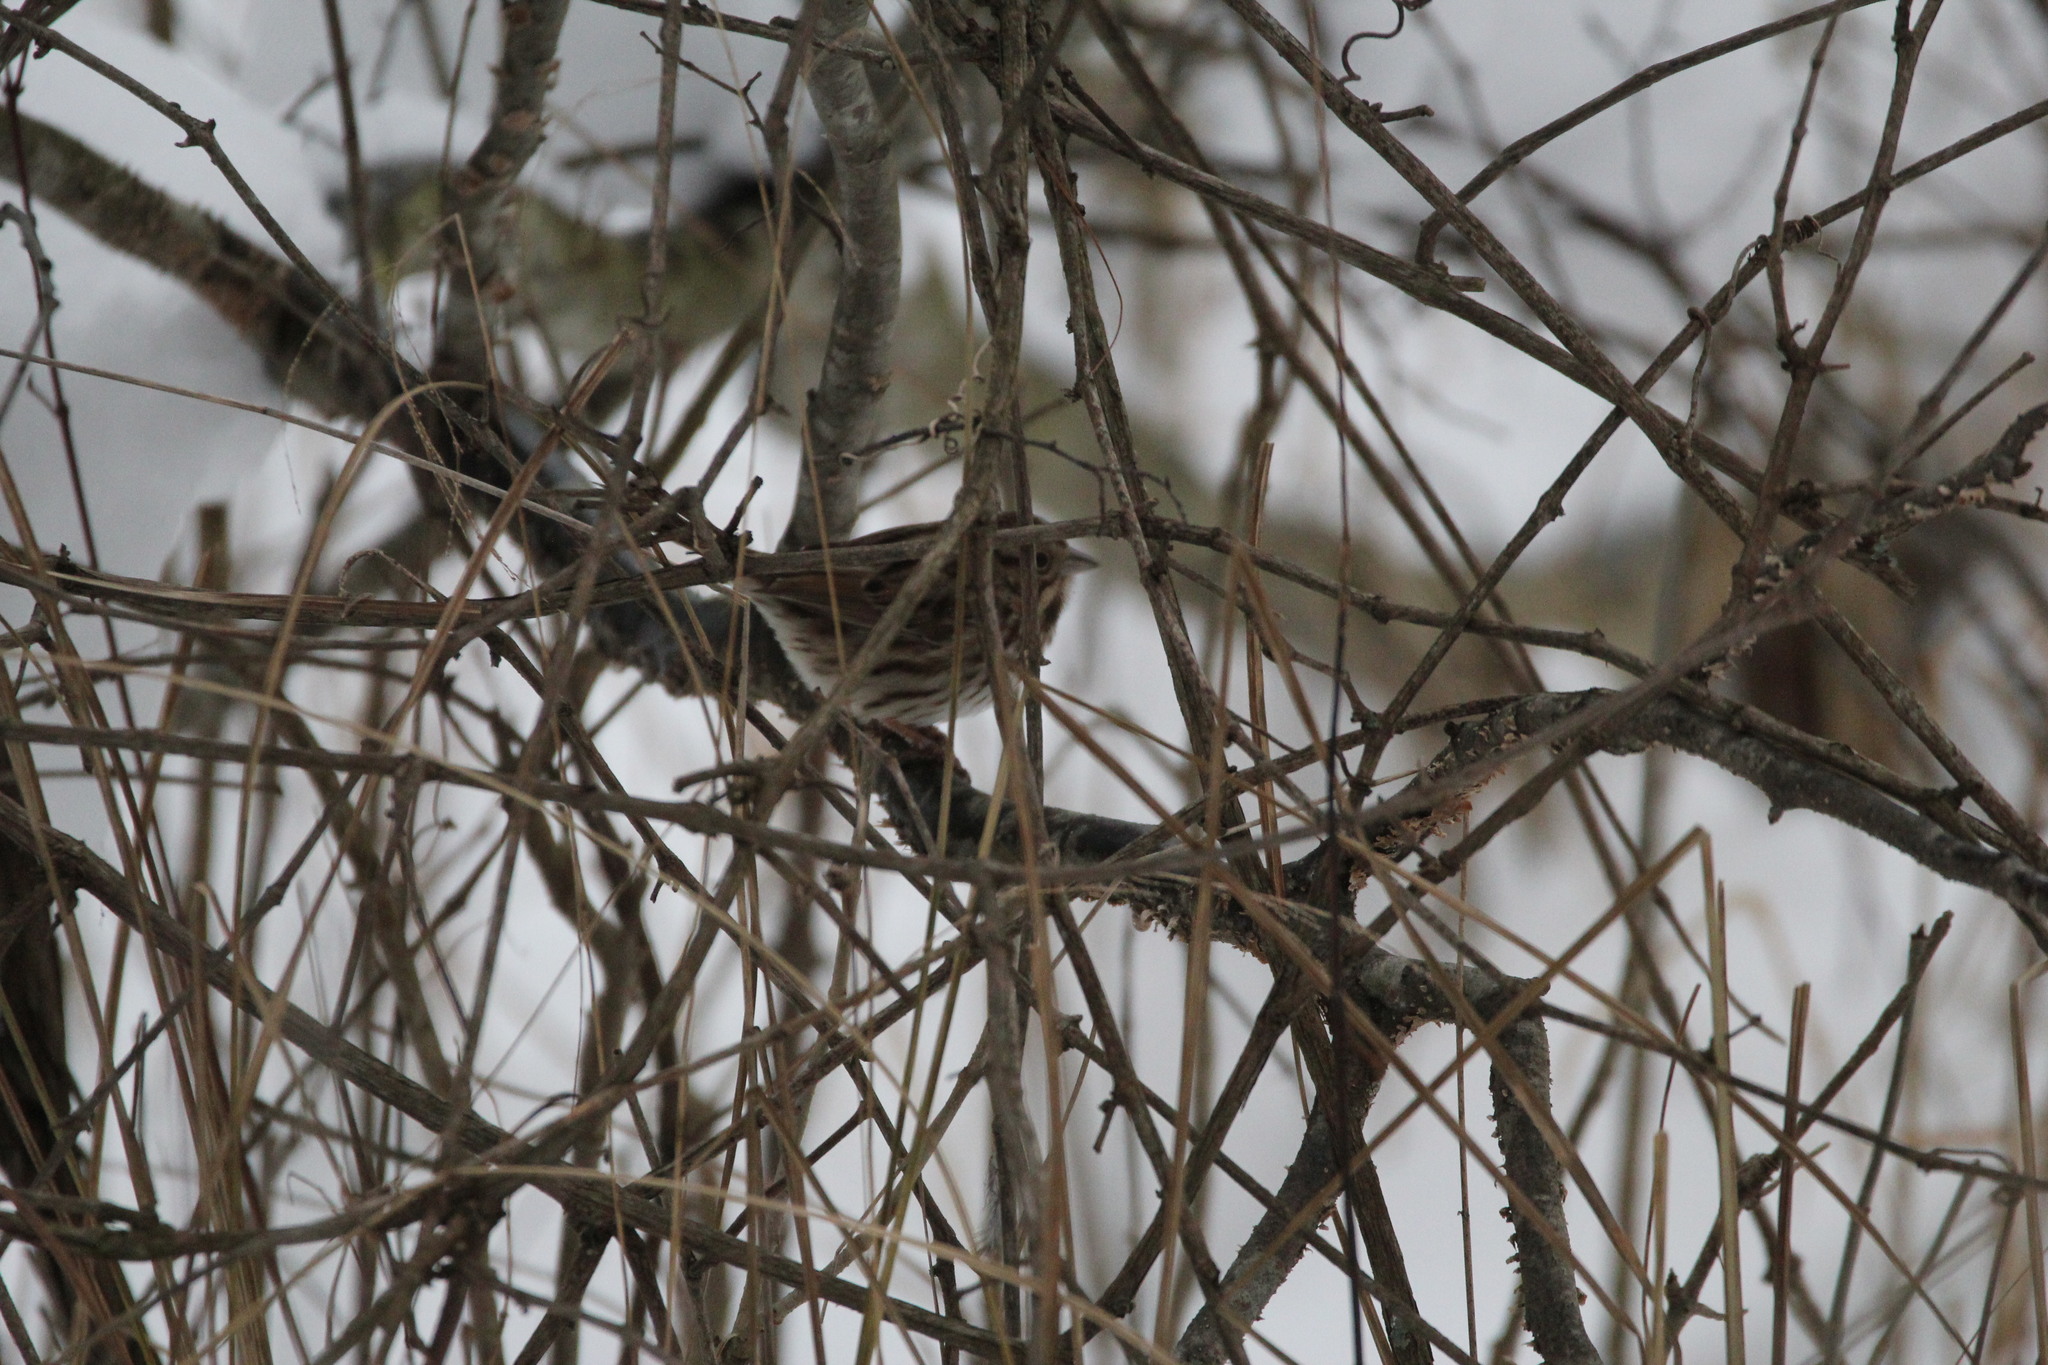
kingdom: Animalia
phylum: Chordata
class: Aves
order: Passeriformes
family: Passerellidae
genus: Melospiza
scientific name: Melospiza melodia
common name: Song sparrow
